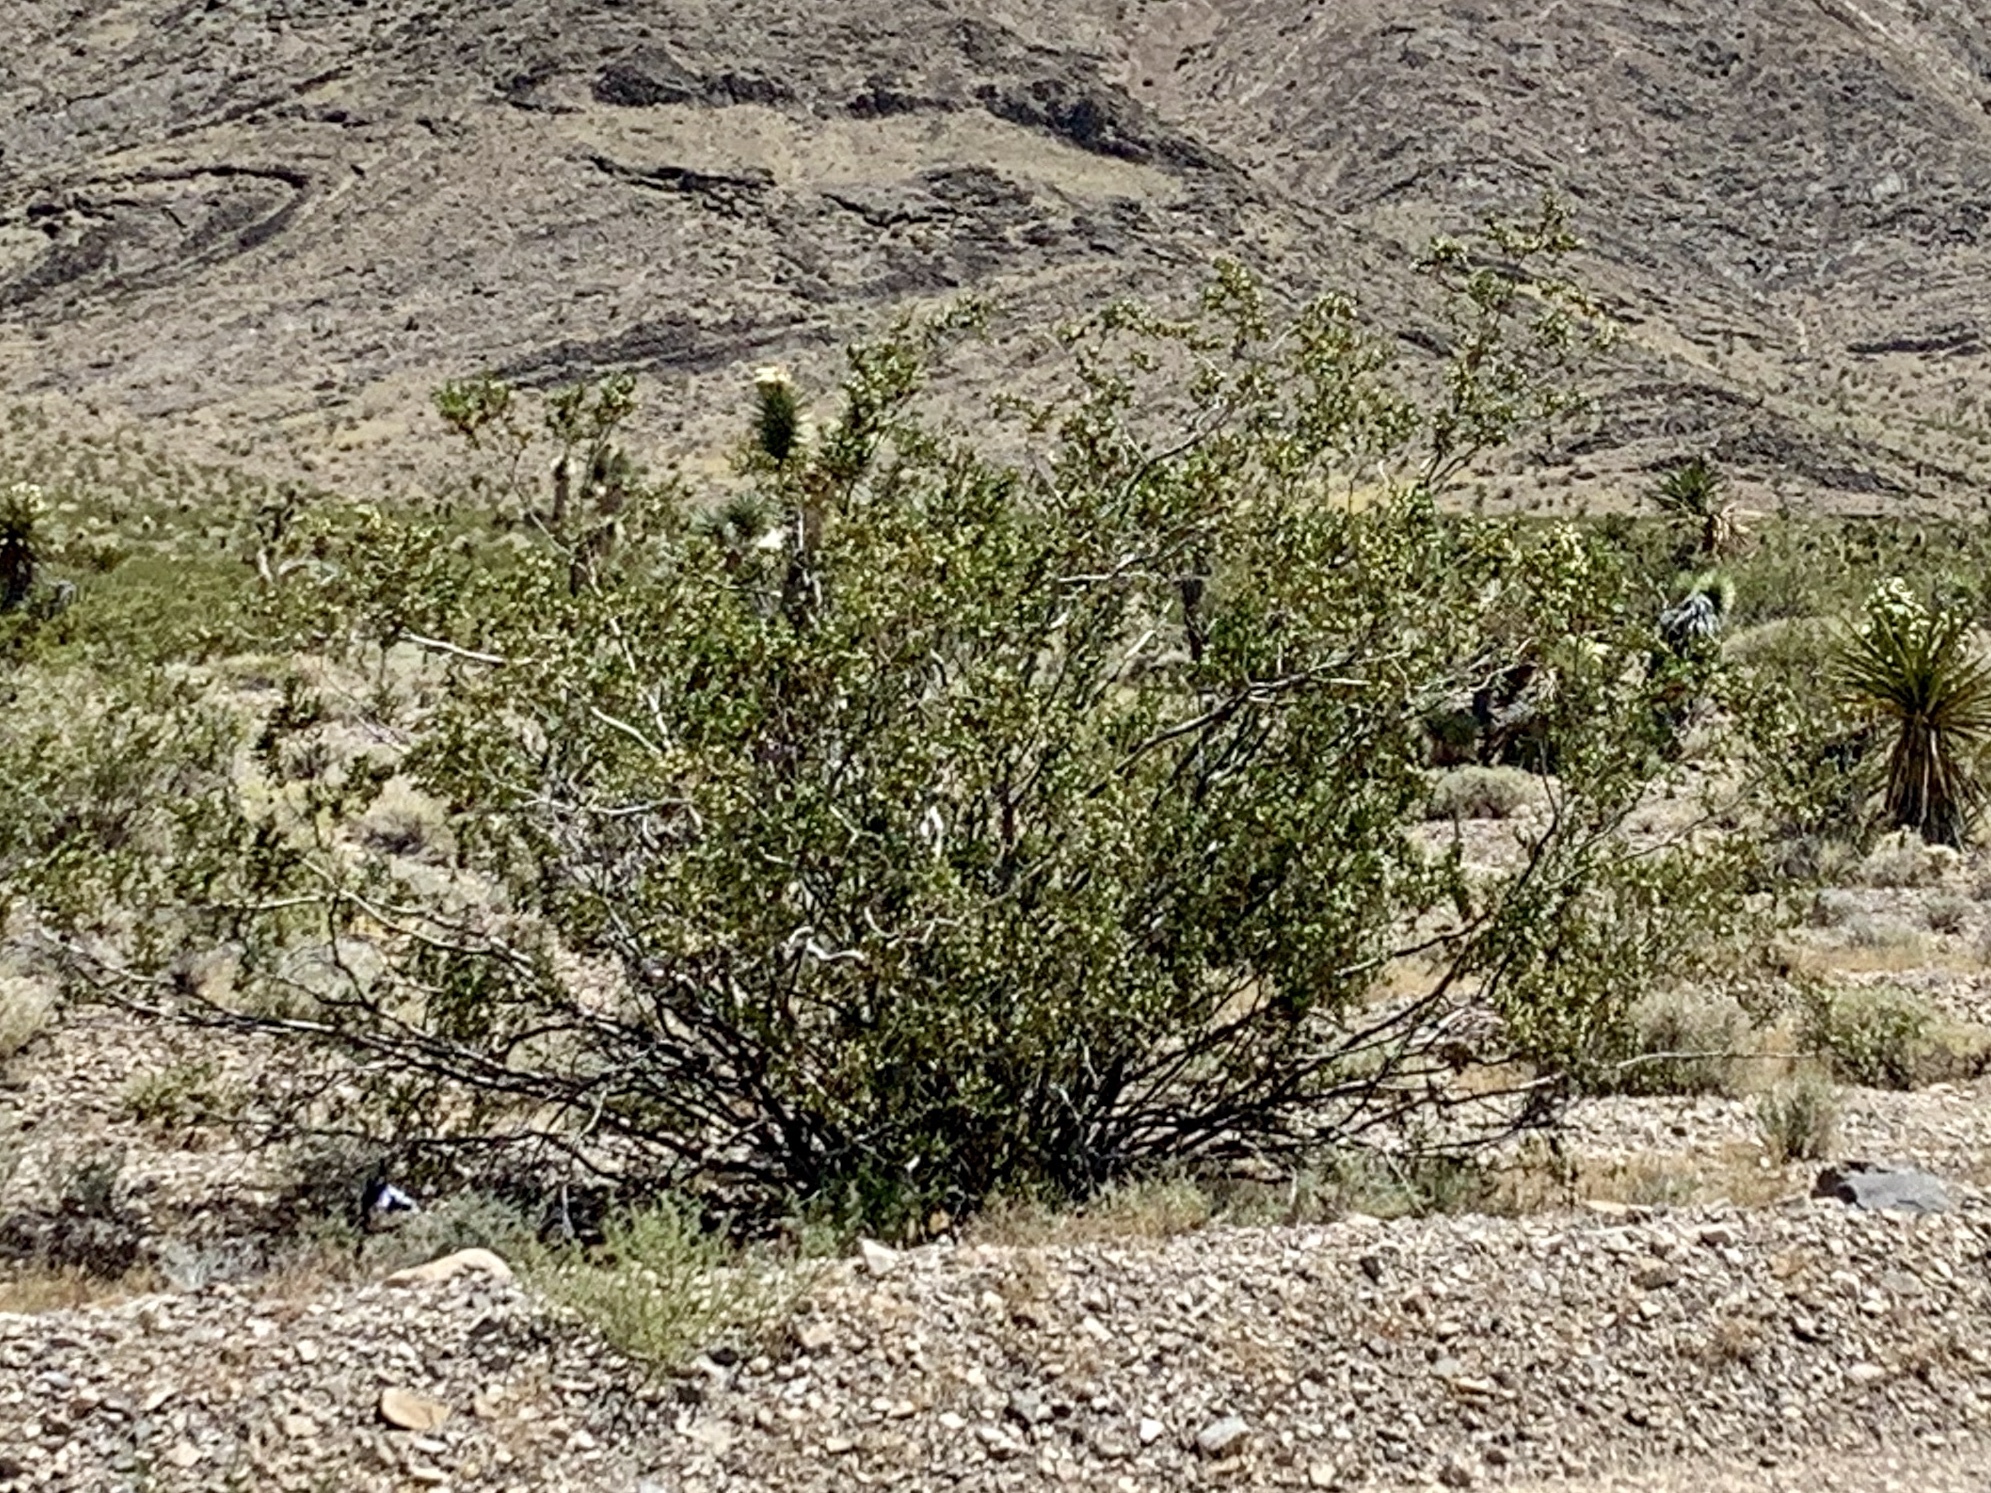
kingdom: Plantae
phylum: Tracheophyta
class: Magnoliopsida
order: Zygophyllales
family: Zygophyllaceae
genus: Larrea
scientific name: Larrea tridentata
